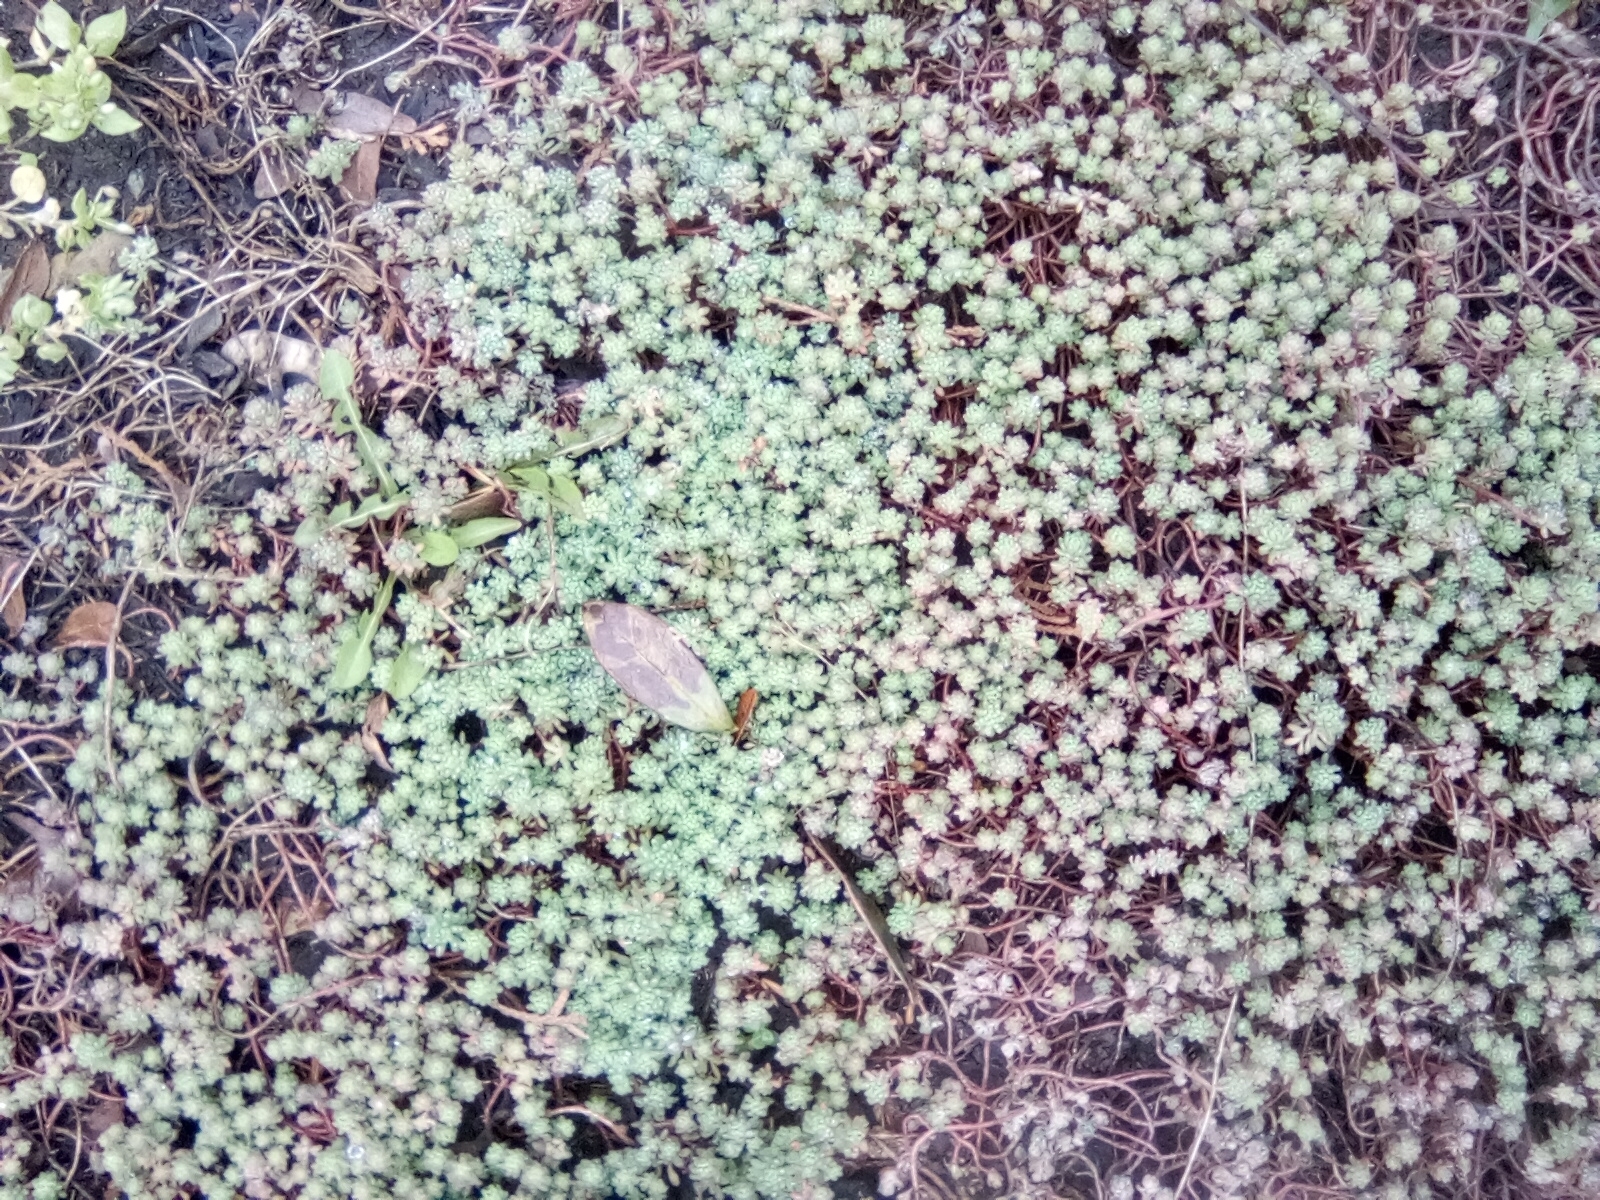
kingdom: Plantae
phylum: Tracheophyta
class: Magnoliopsida
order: Saxifragales
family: Crassulaceae
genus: Sedum
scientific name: Sedum pallidum
